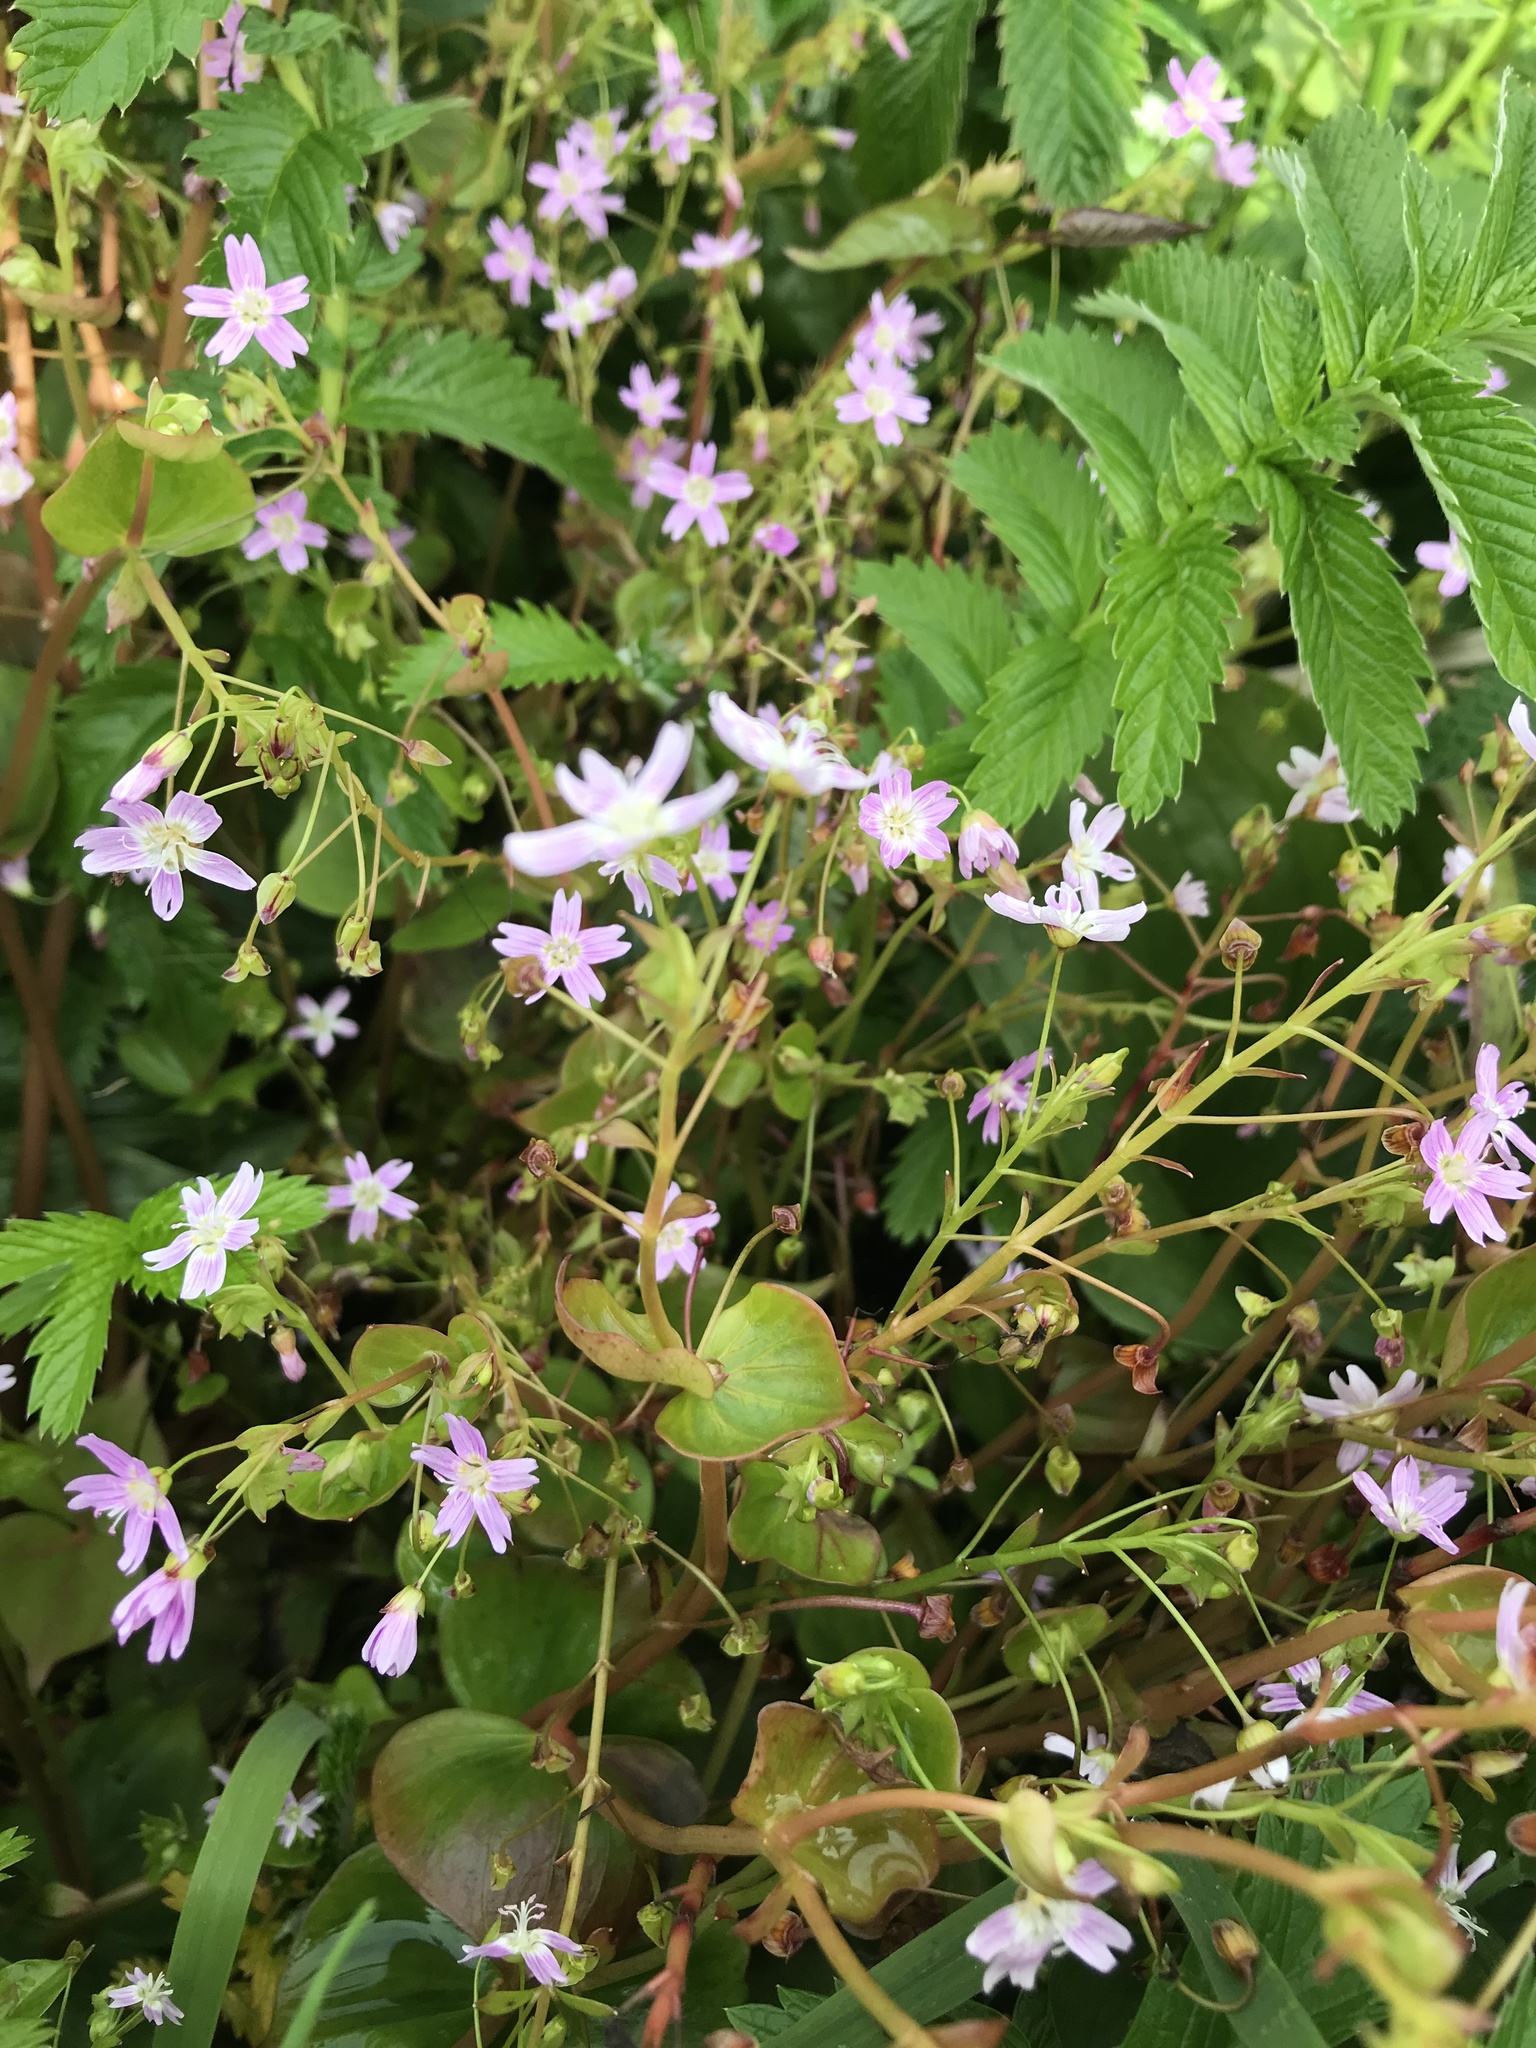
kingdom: Plantae
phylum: Tracheophyta
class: Magnoliopsida
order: Caryophyllales
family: Montiaceae
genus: Claytonia
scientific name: Claytonia sibirica
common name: Pink purslane
